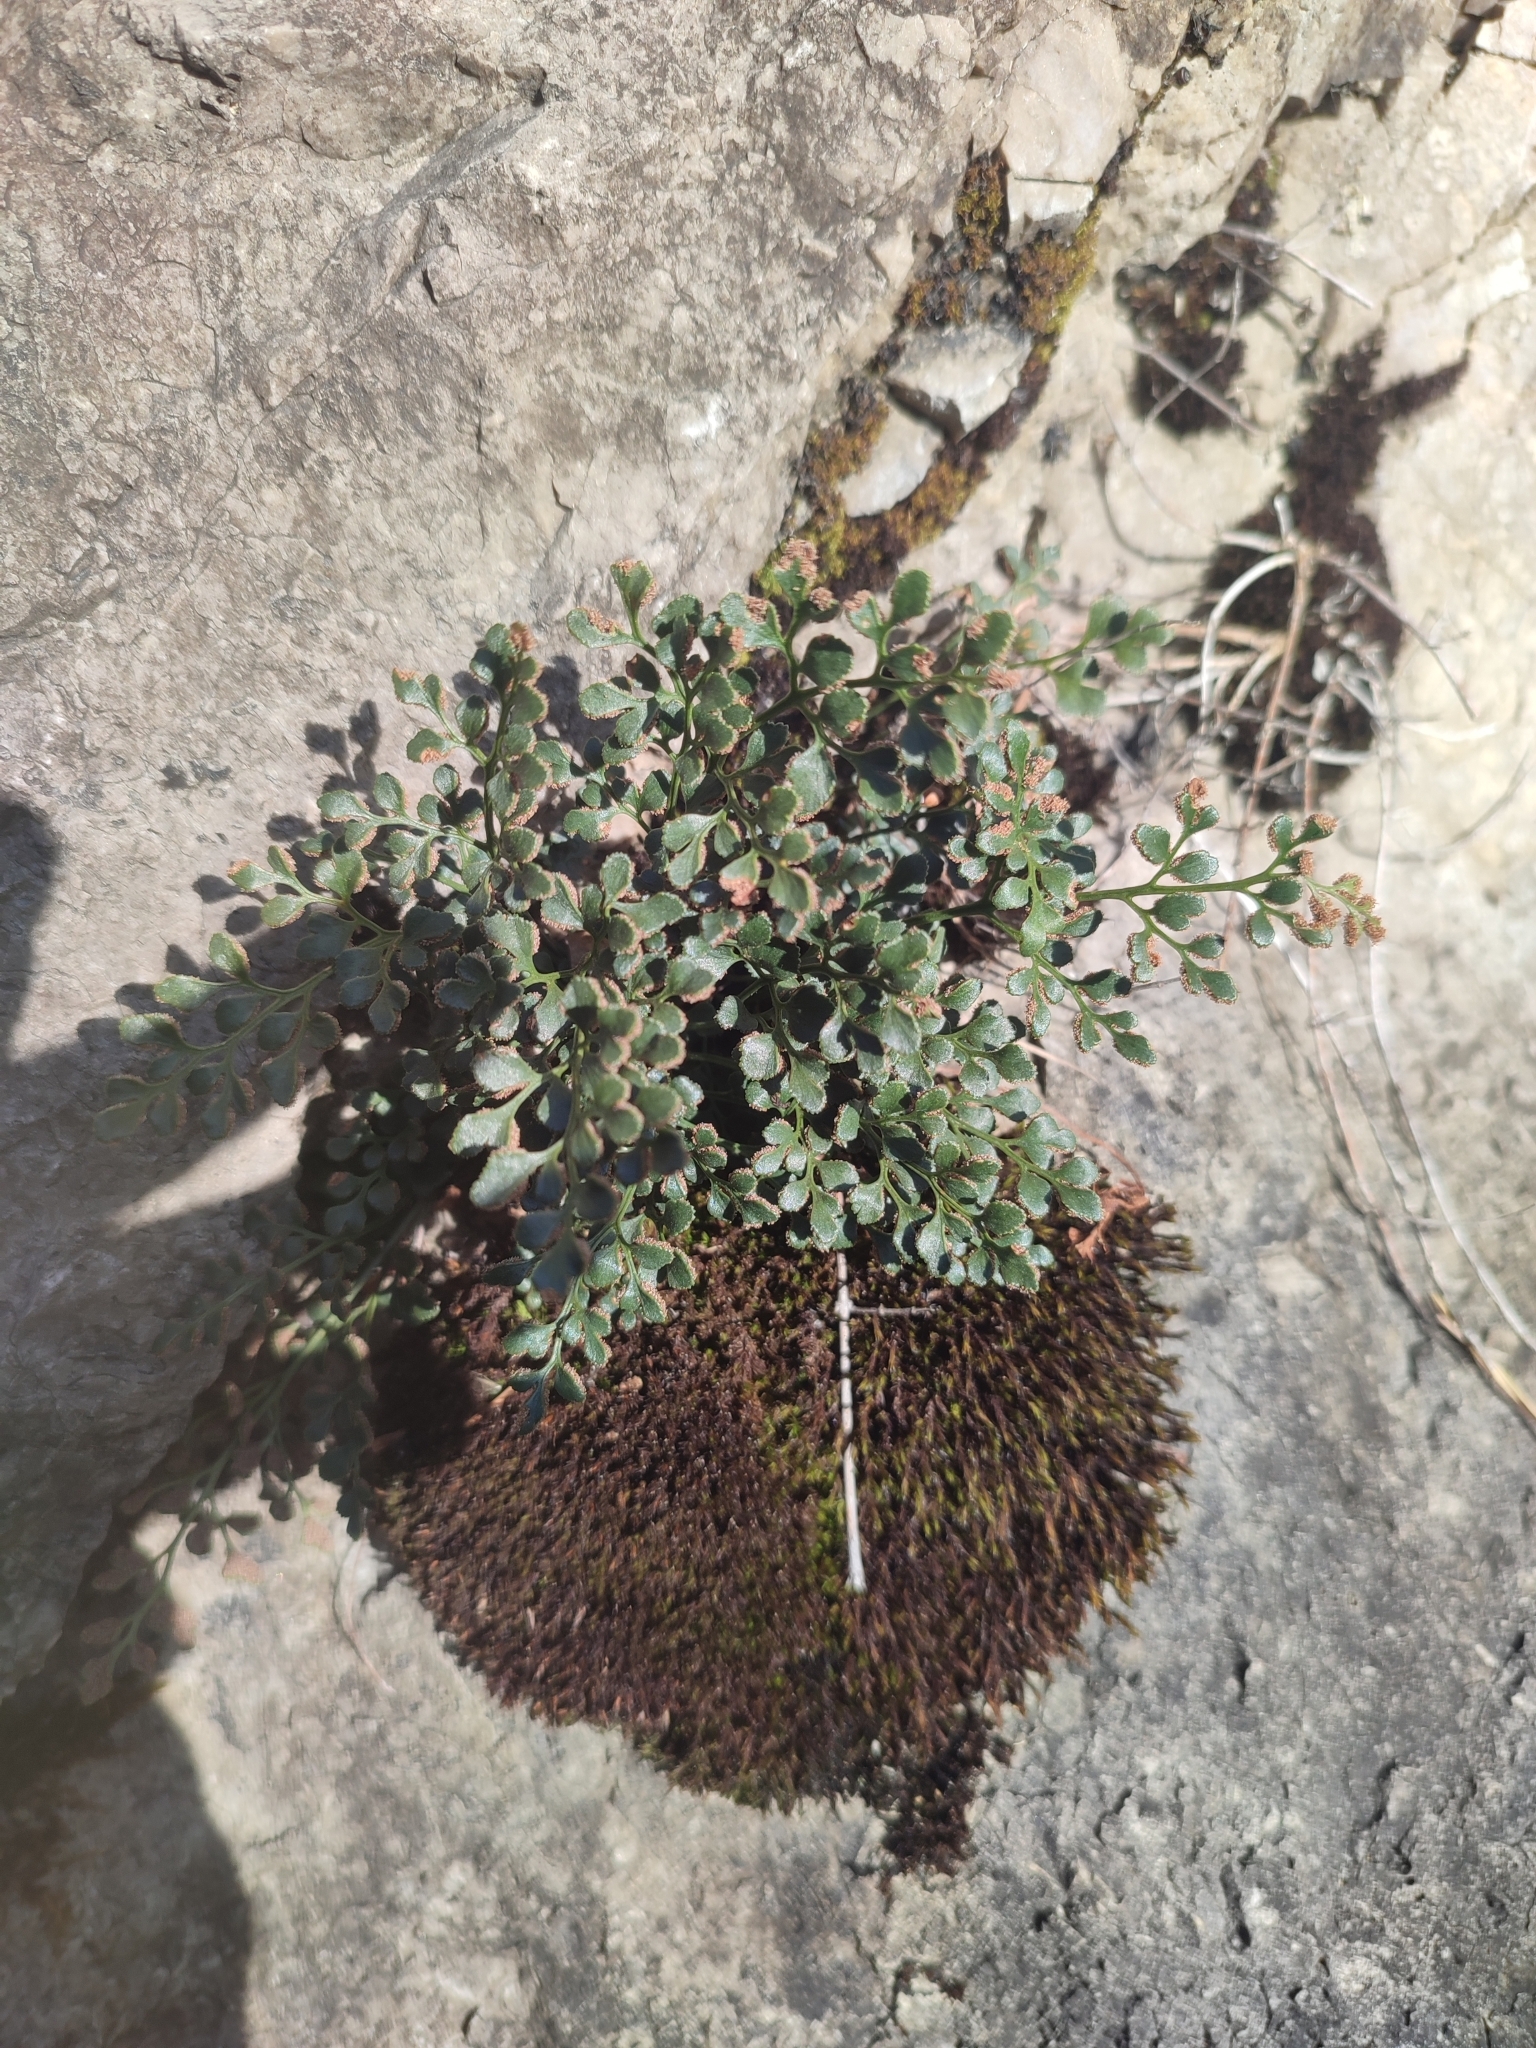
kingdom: Plantae
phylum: Tracheophyta
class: Polypodiopsida
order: Polypodiales
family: Aspleniaceae
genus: Asplenium
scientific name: Asplenium ruta-muraria
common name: Wall-rue
